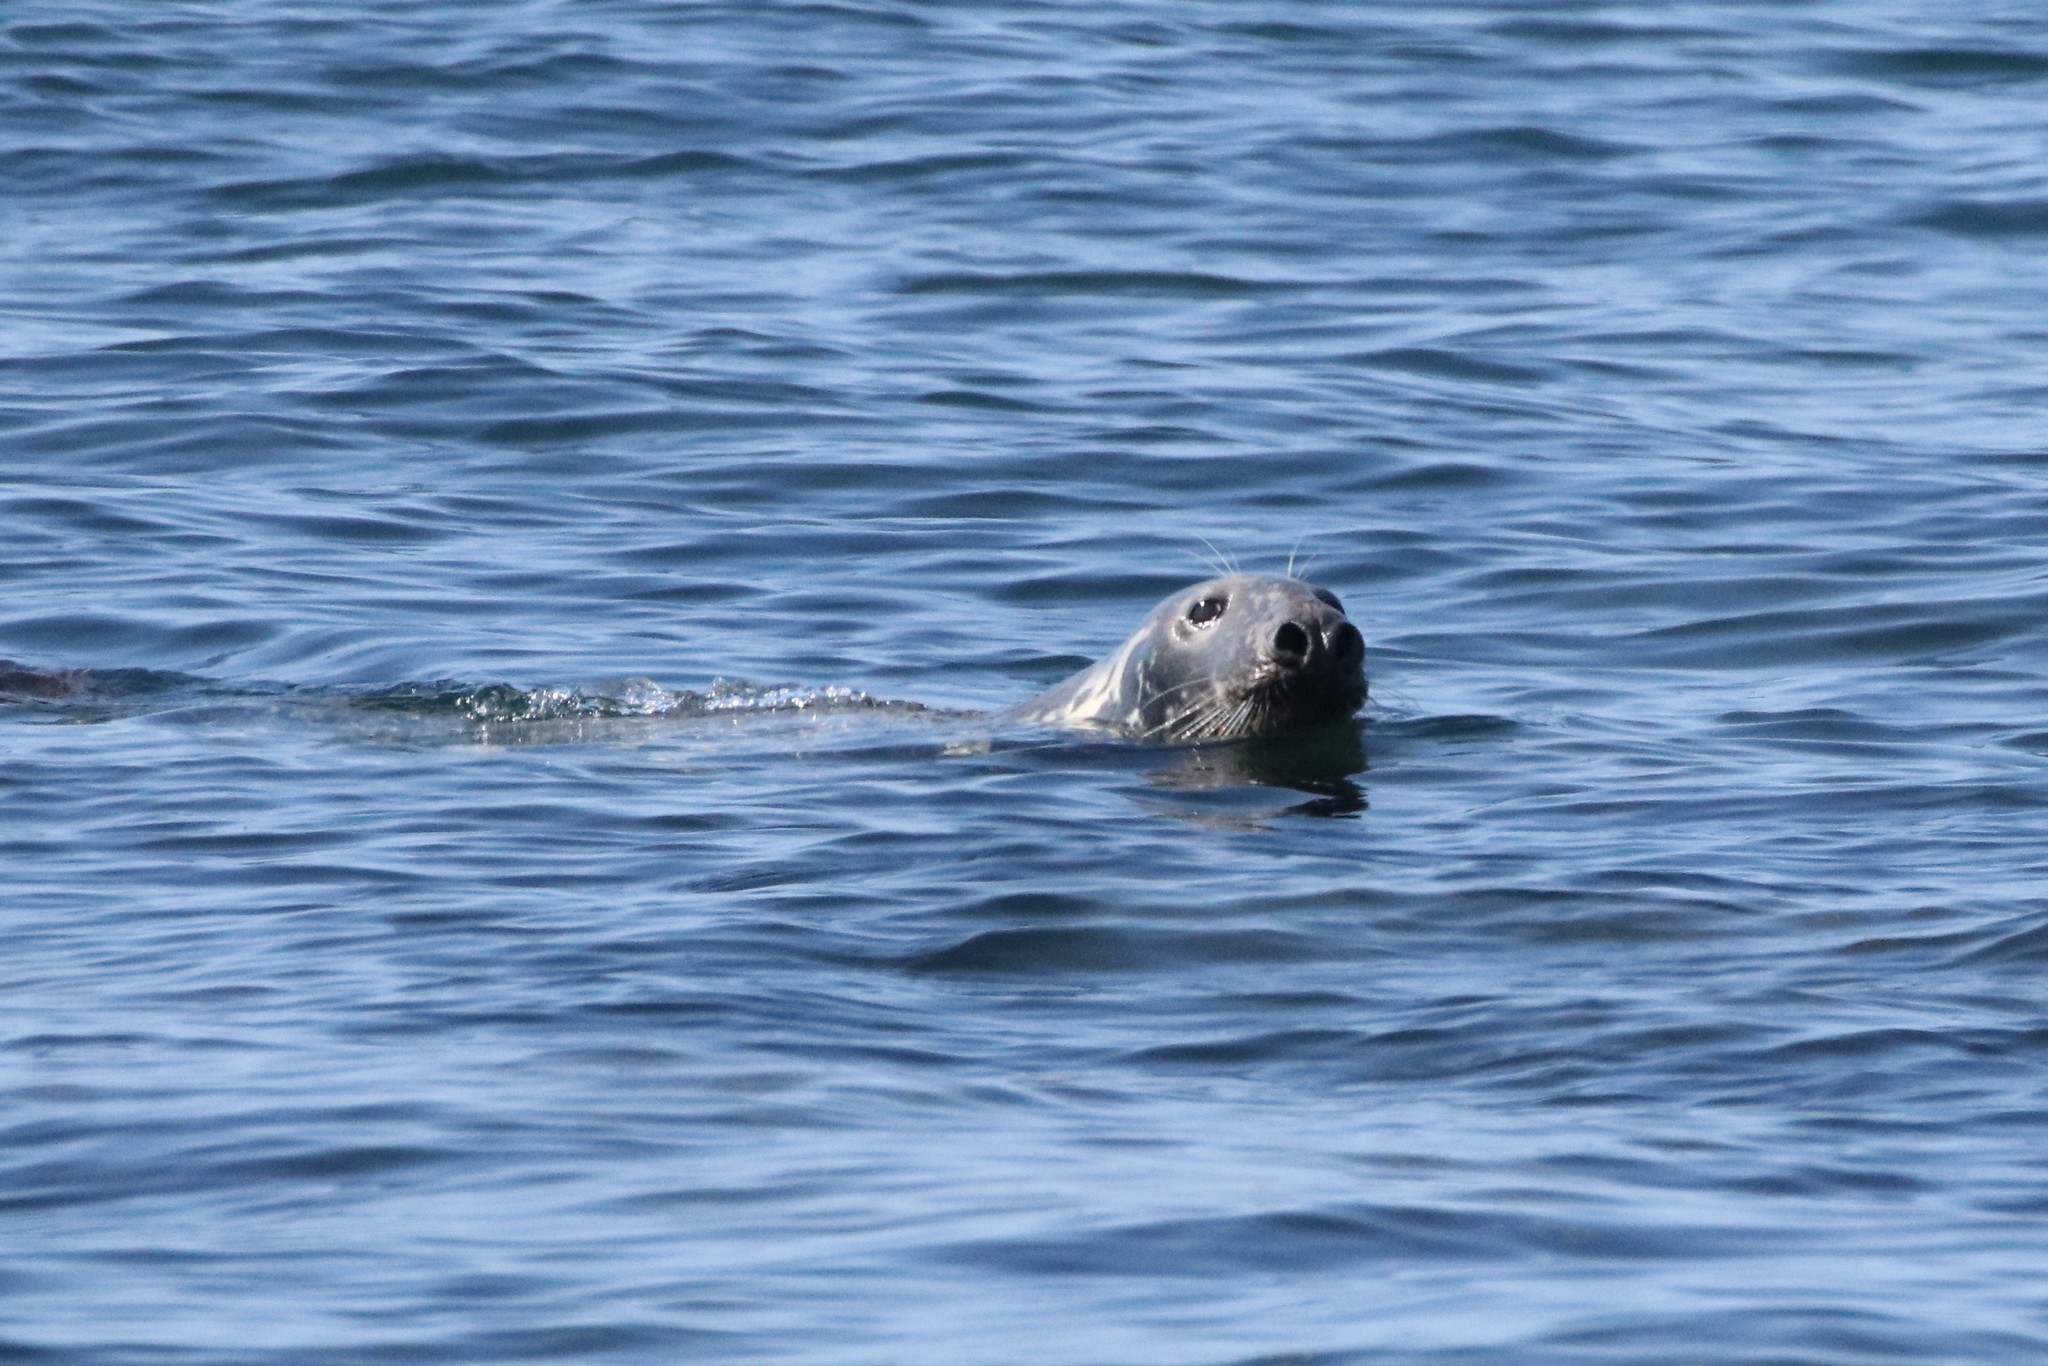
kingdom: Animalia
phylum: Chordata
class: Mammalia
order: Carnivora
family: Phocidae
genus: Halichoerus
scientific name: Halichoerus grypus
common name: Grey seal
